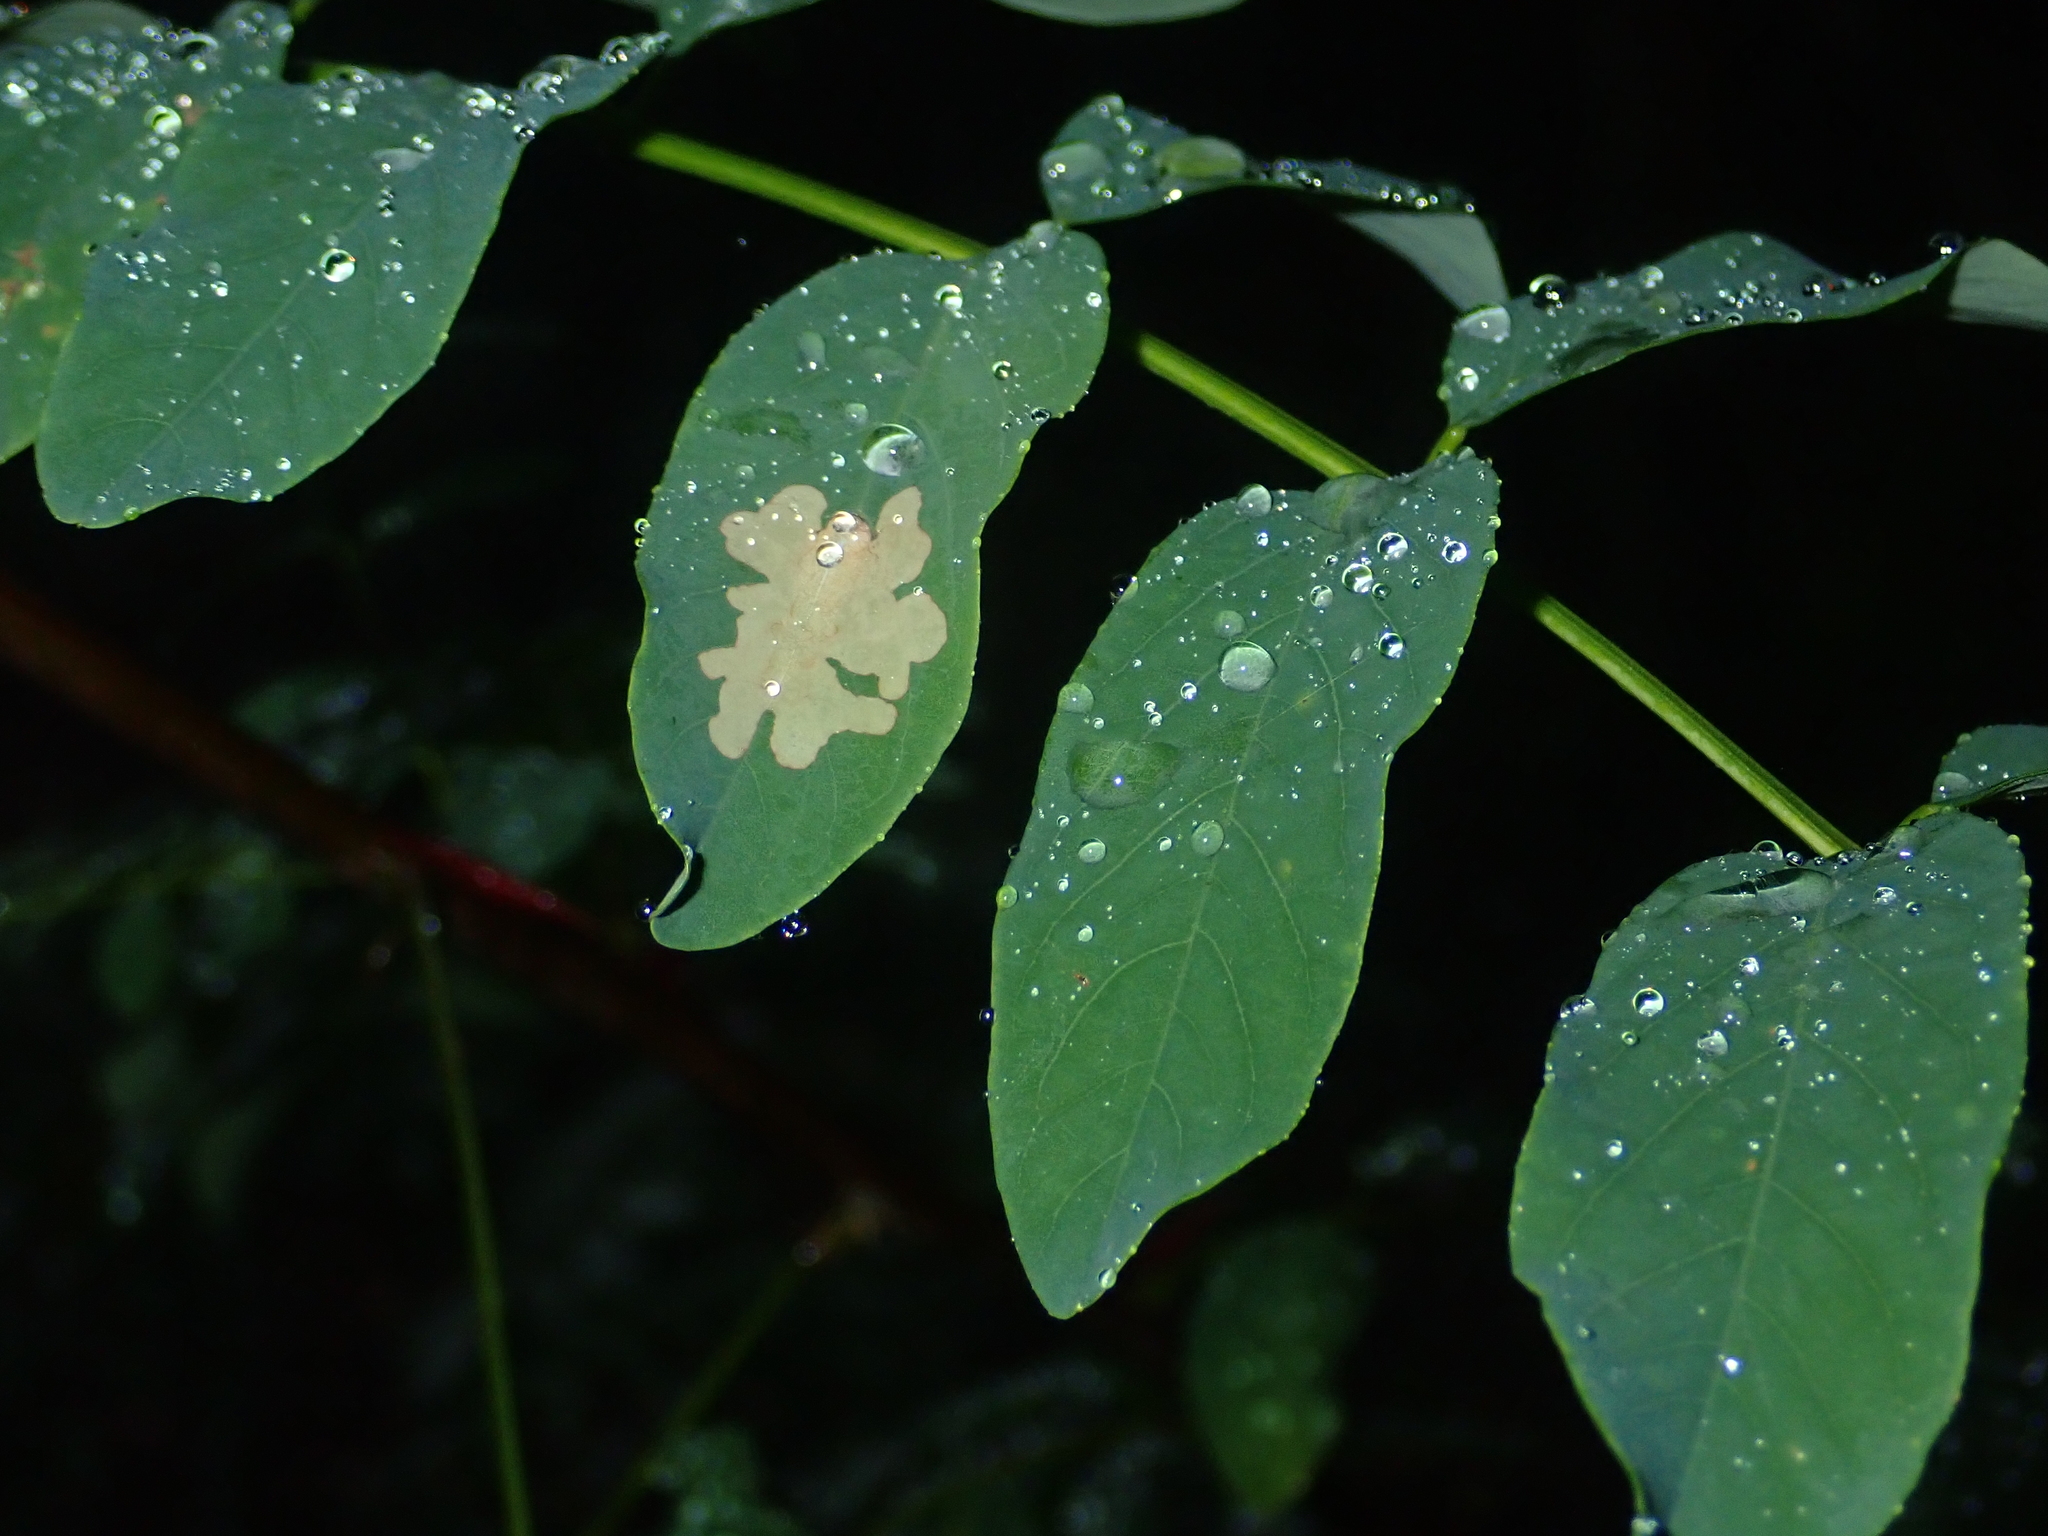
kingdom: Plantae
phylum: Tracheophyta
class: Magnoliopsida
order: Fabales
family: Fabaceae
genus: Robinia
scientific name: Robinia pseudoacacia
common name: Black locust
